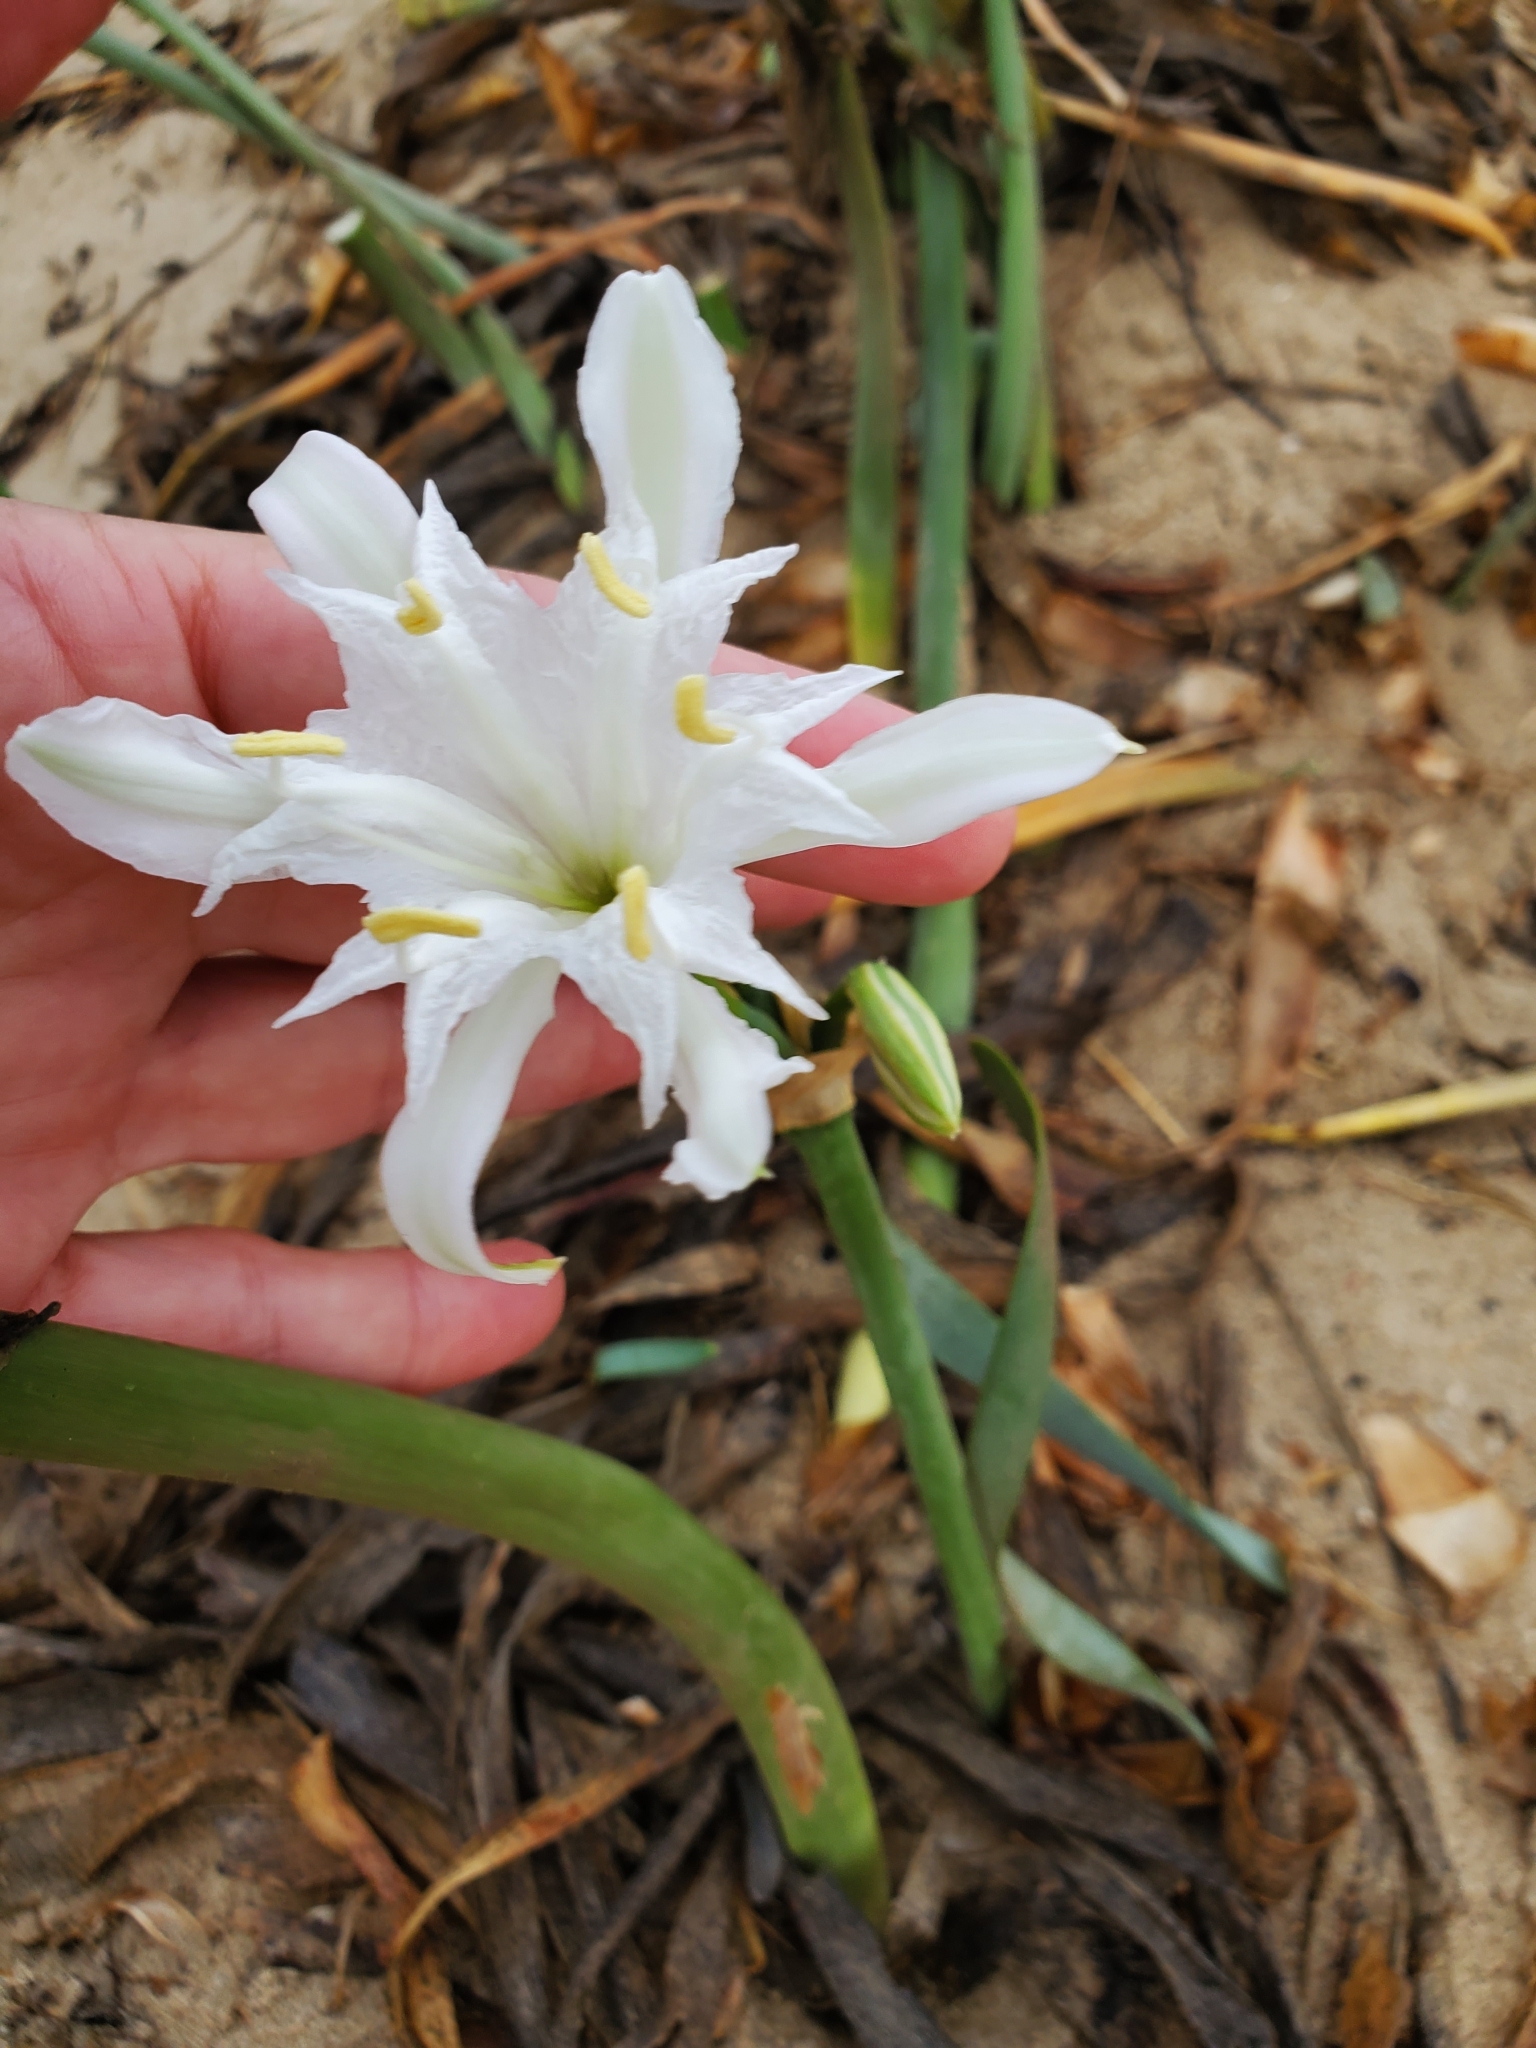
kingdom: Plantae
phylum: Tracheophyta
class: Liliopsida
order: Asparagales
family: Amaryllidaceae
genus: Pancratium
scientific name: Pancratium maritimum
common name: Sea-daffodil
